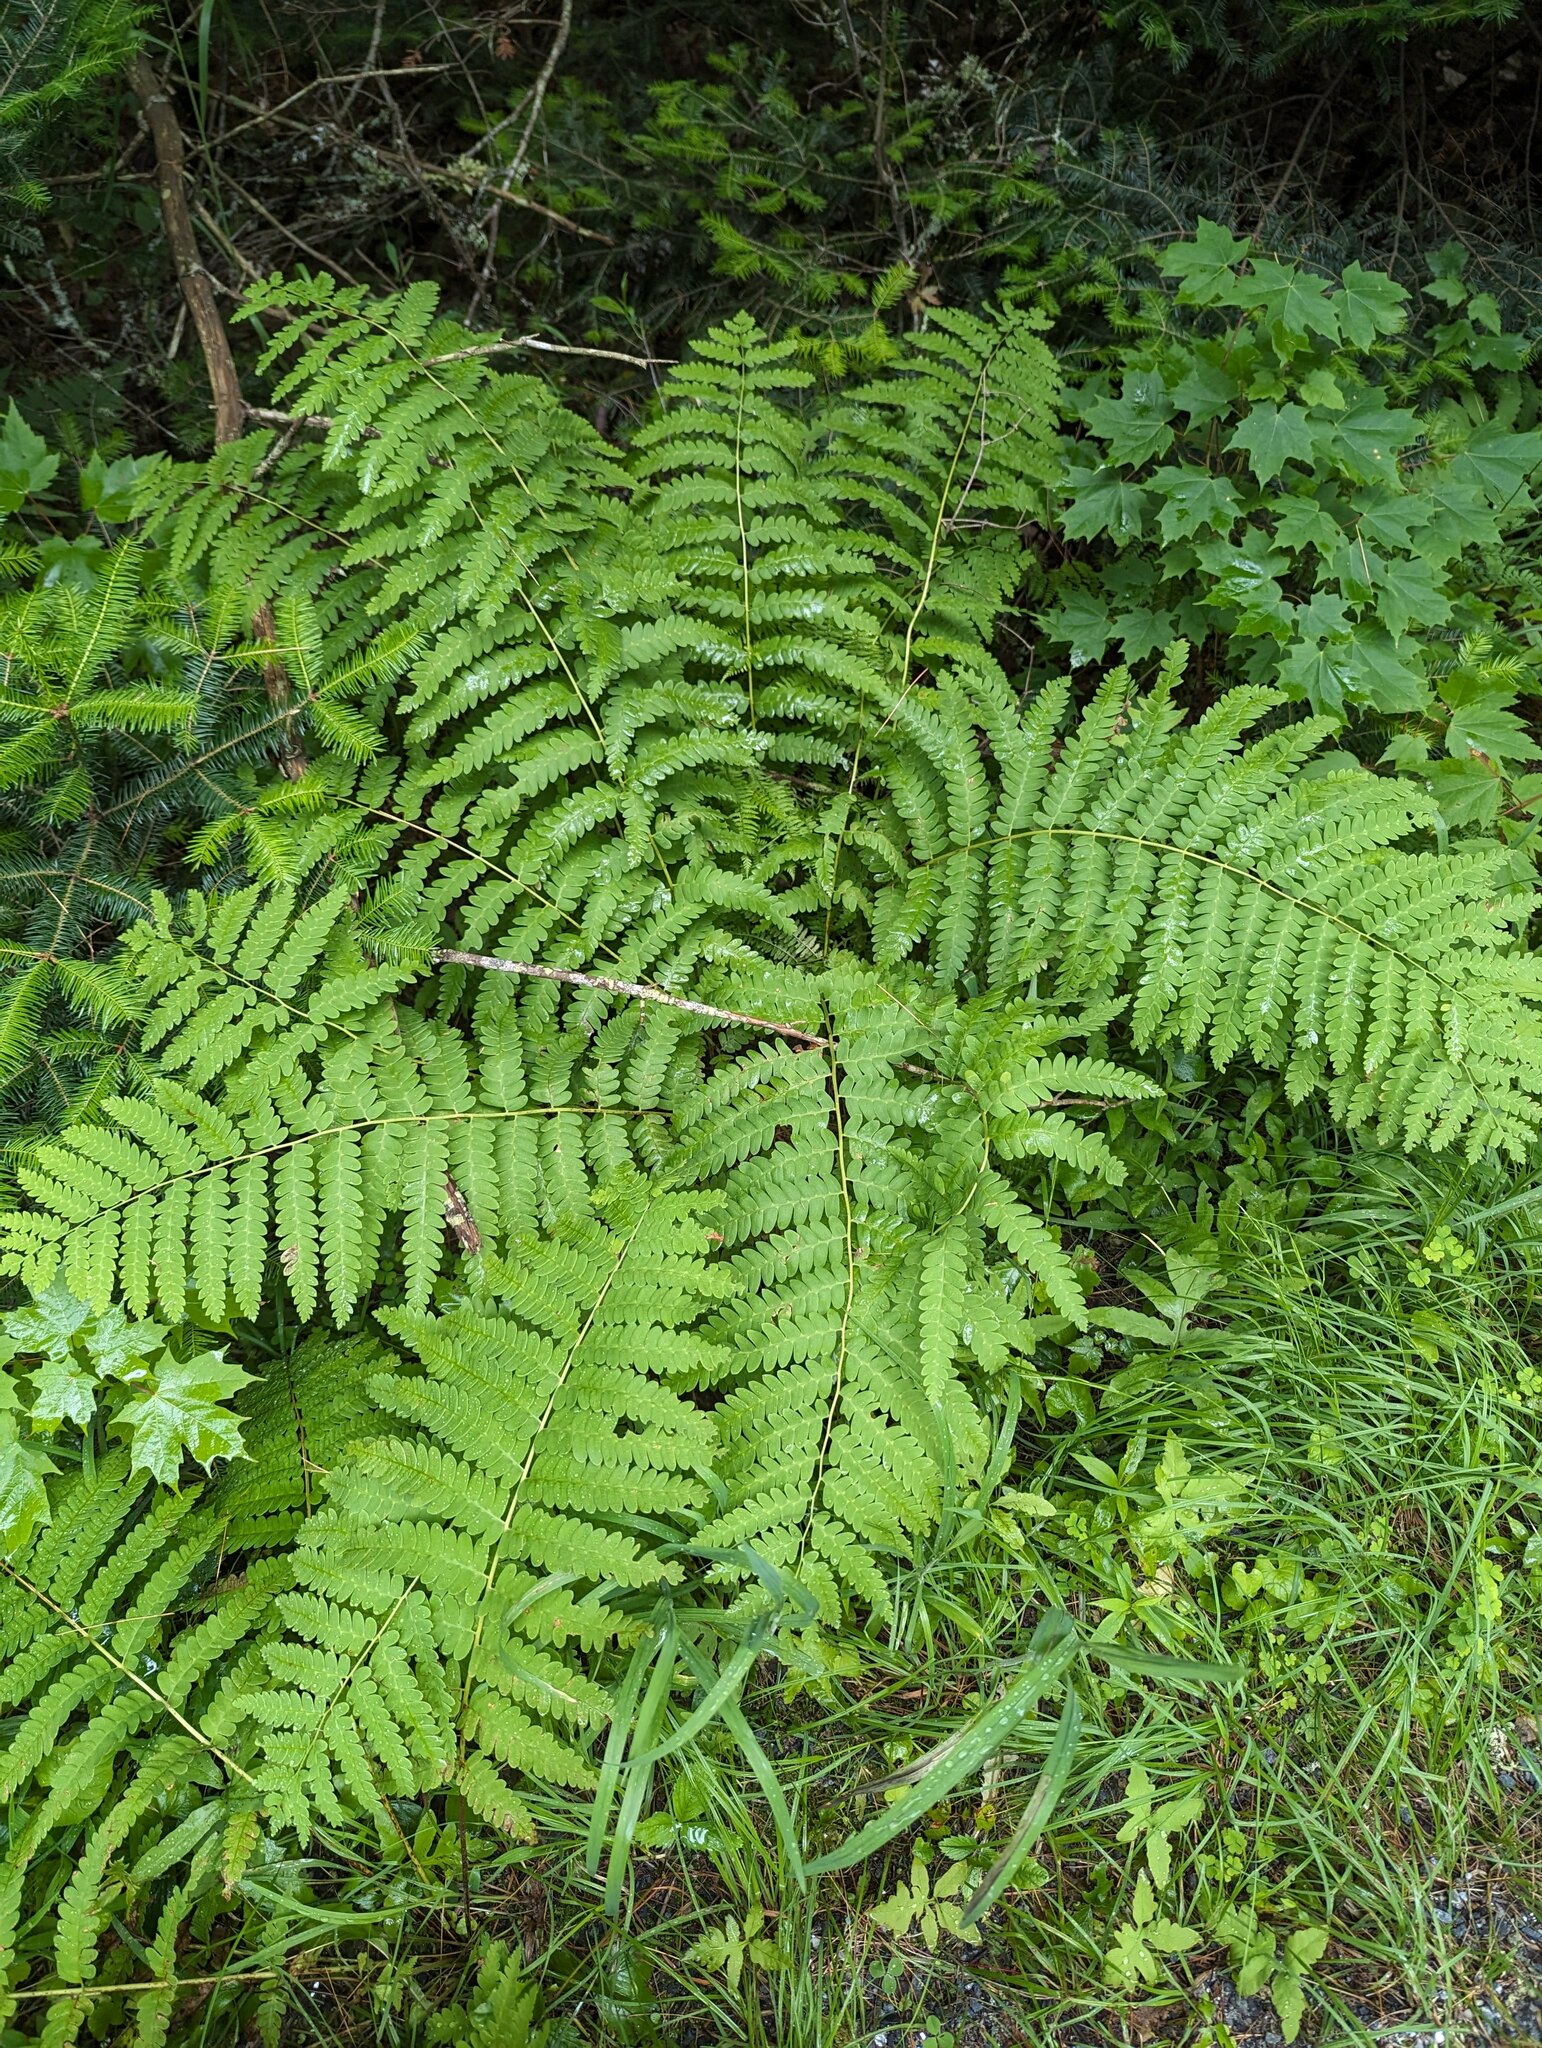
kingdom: Plantae
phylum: Tracheophyta
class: Polypodiopsida
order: Osmundales
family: Osmundaceae
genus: Claytosmunda
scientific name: Claytosmunda claytoniana
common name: Clayton's fern
